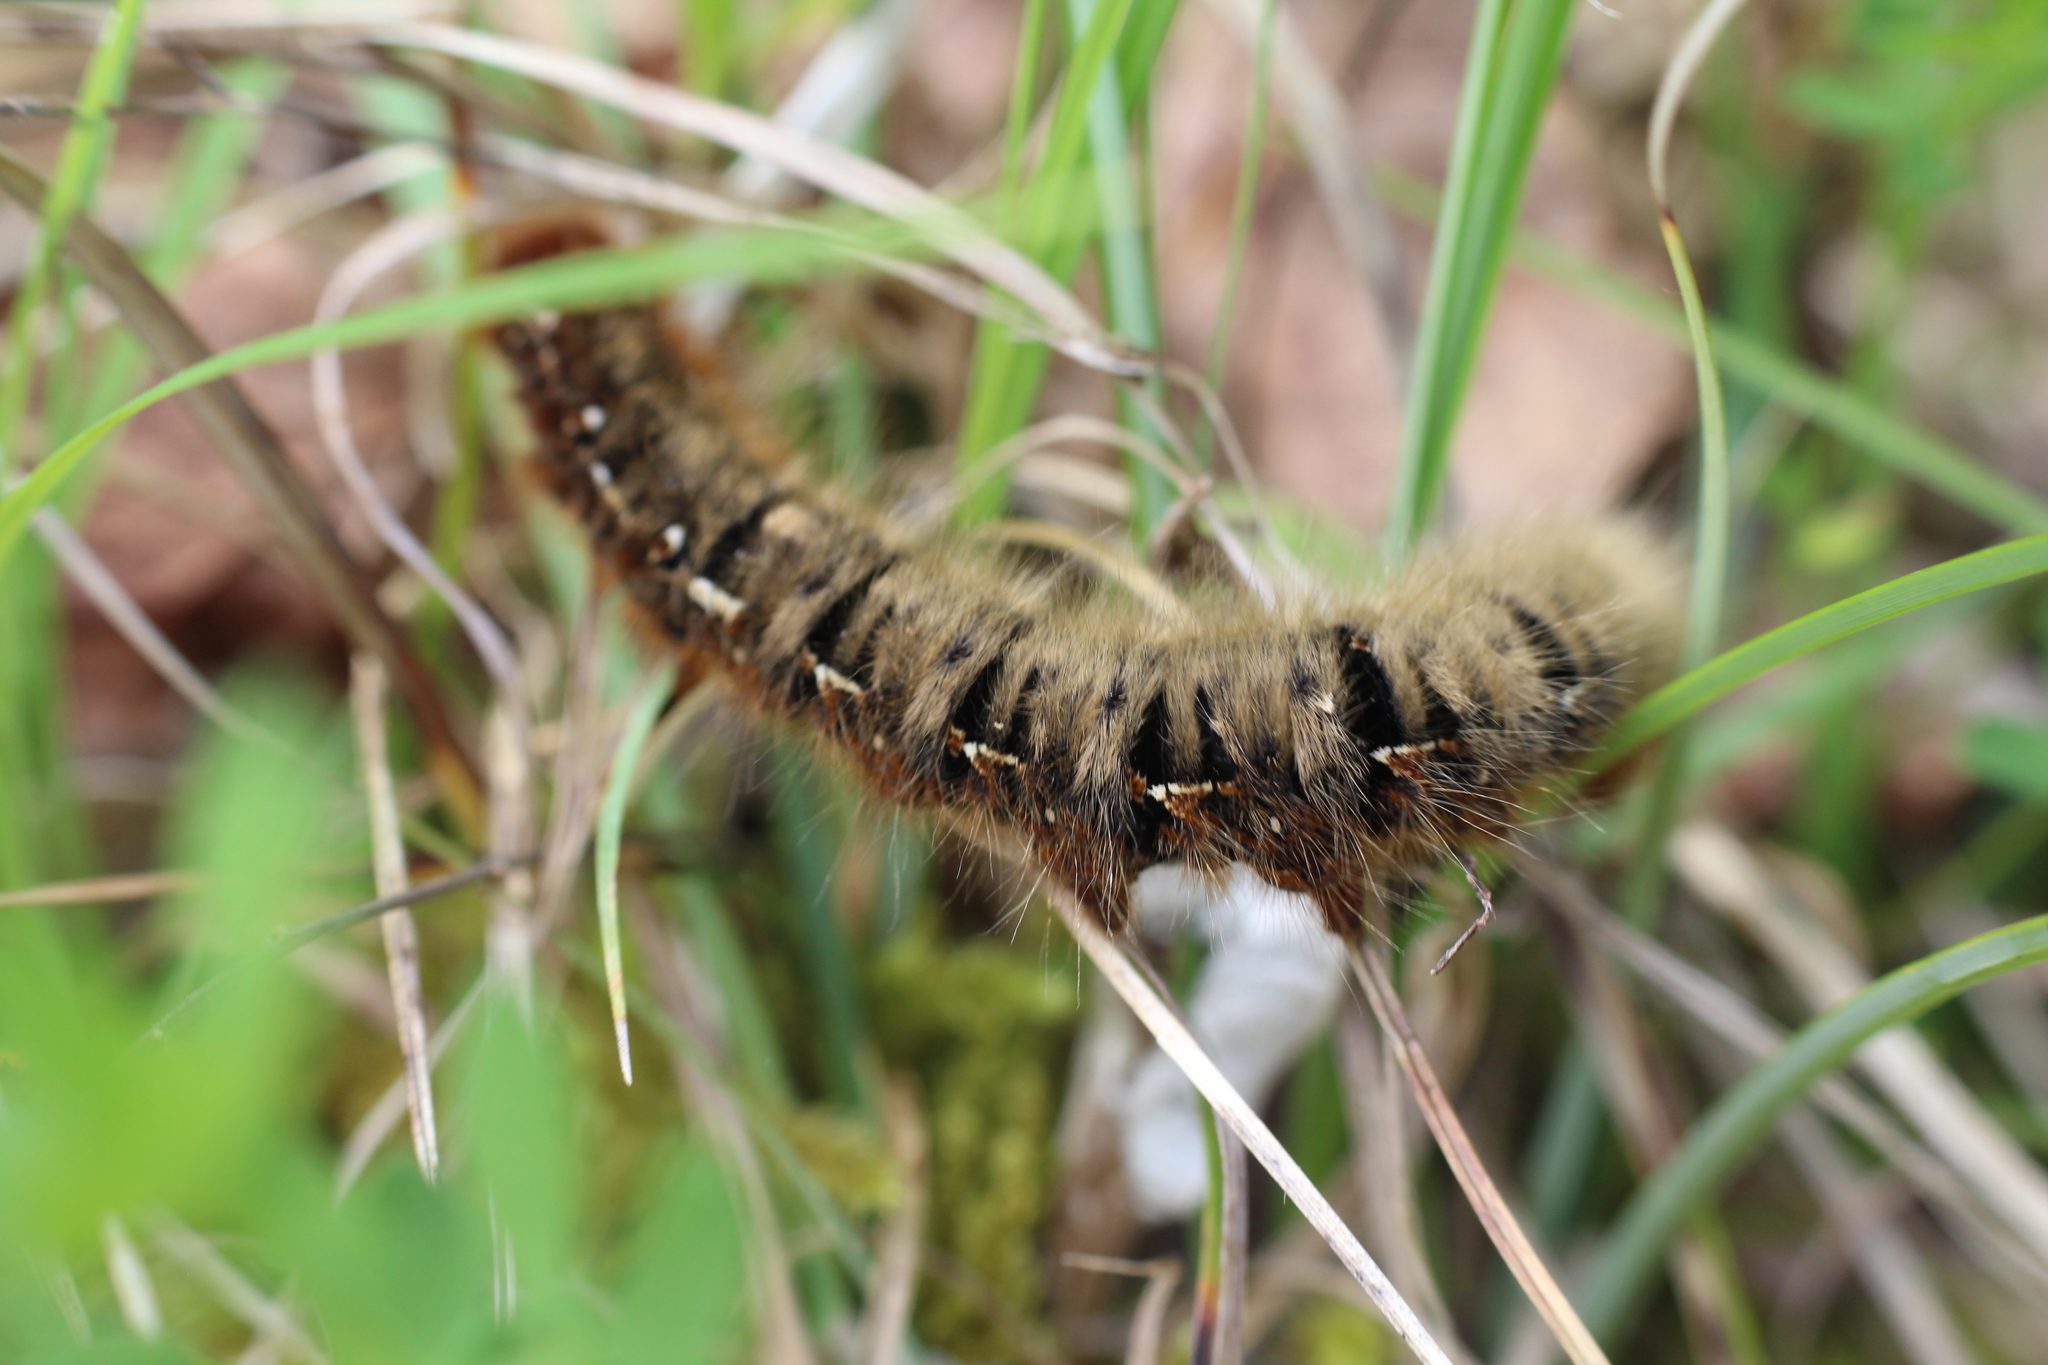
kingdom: Animalia
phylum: Arthropoda
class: Insecta
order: Lepidoptera
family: Lasiocampidae
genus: Lasiocampa
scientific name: Lasiocampa quercus
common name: Oak eggar
